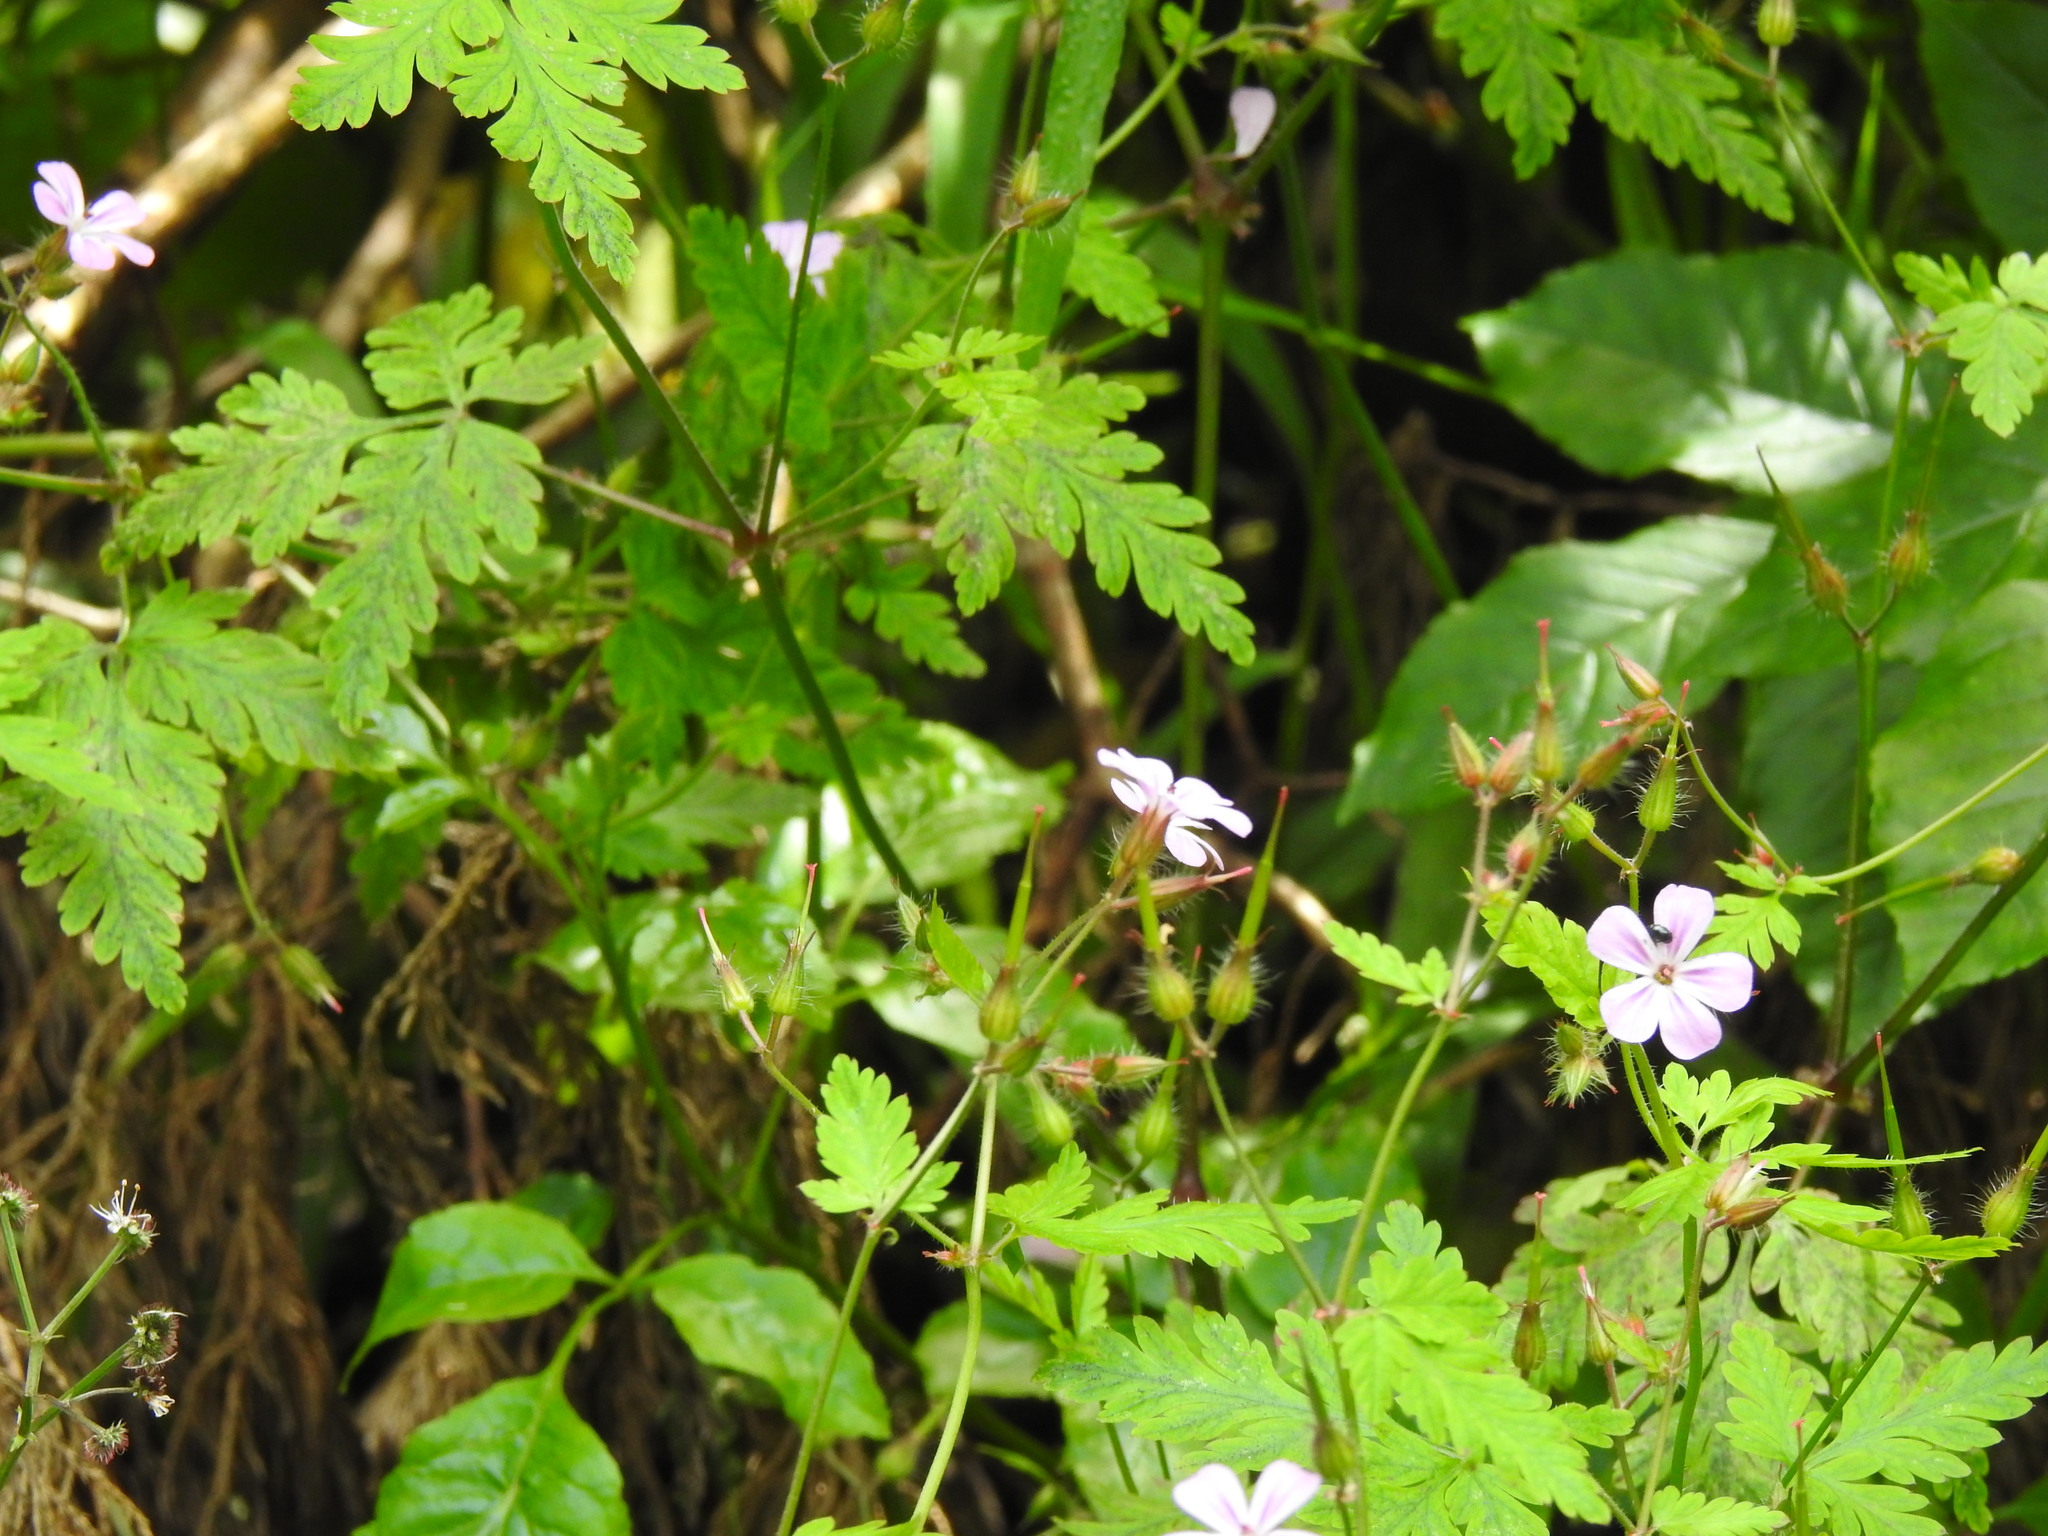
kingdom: Plantae
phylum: Tracheophyta
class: Magnoliopsida
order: Geraniales
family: Geraniaceae
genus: Geranium
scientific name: Geranium robertianum
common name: Herb-robert
